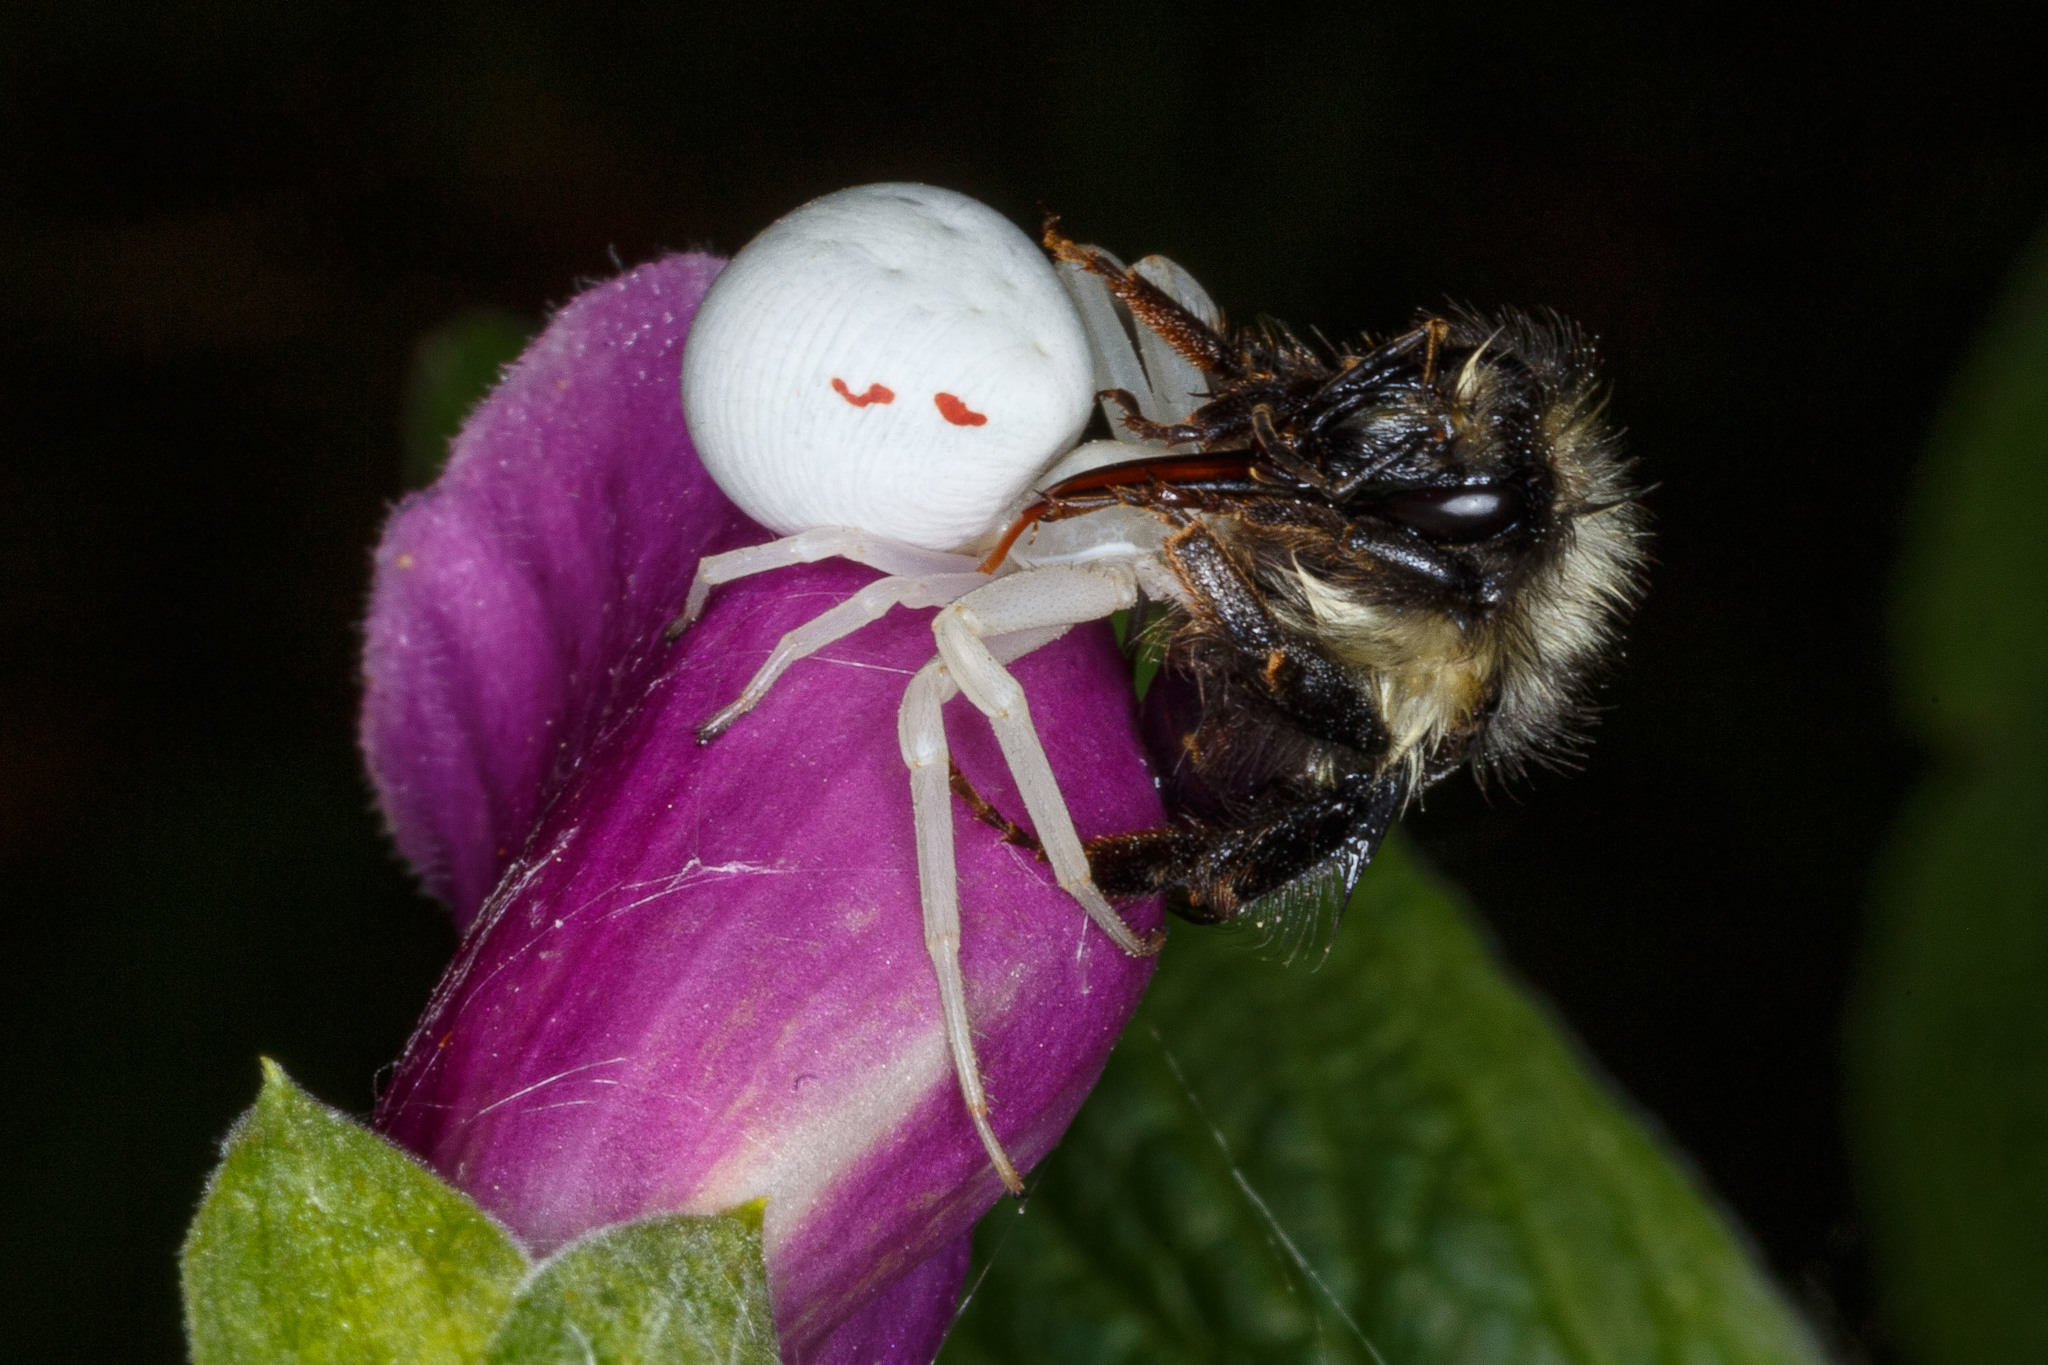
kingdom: Animalia
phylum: Arthropoda
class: Arachnida
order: Araneae
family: Thomisidae
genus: Misumena
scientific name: Misumena vatia
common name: Goldenrod crab spider
